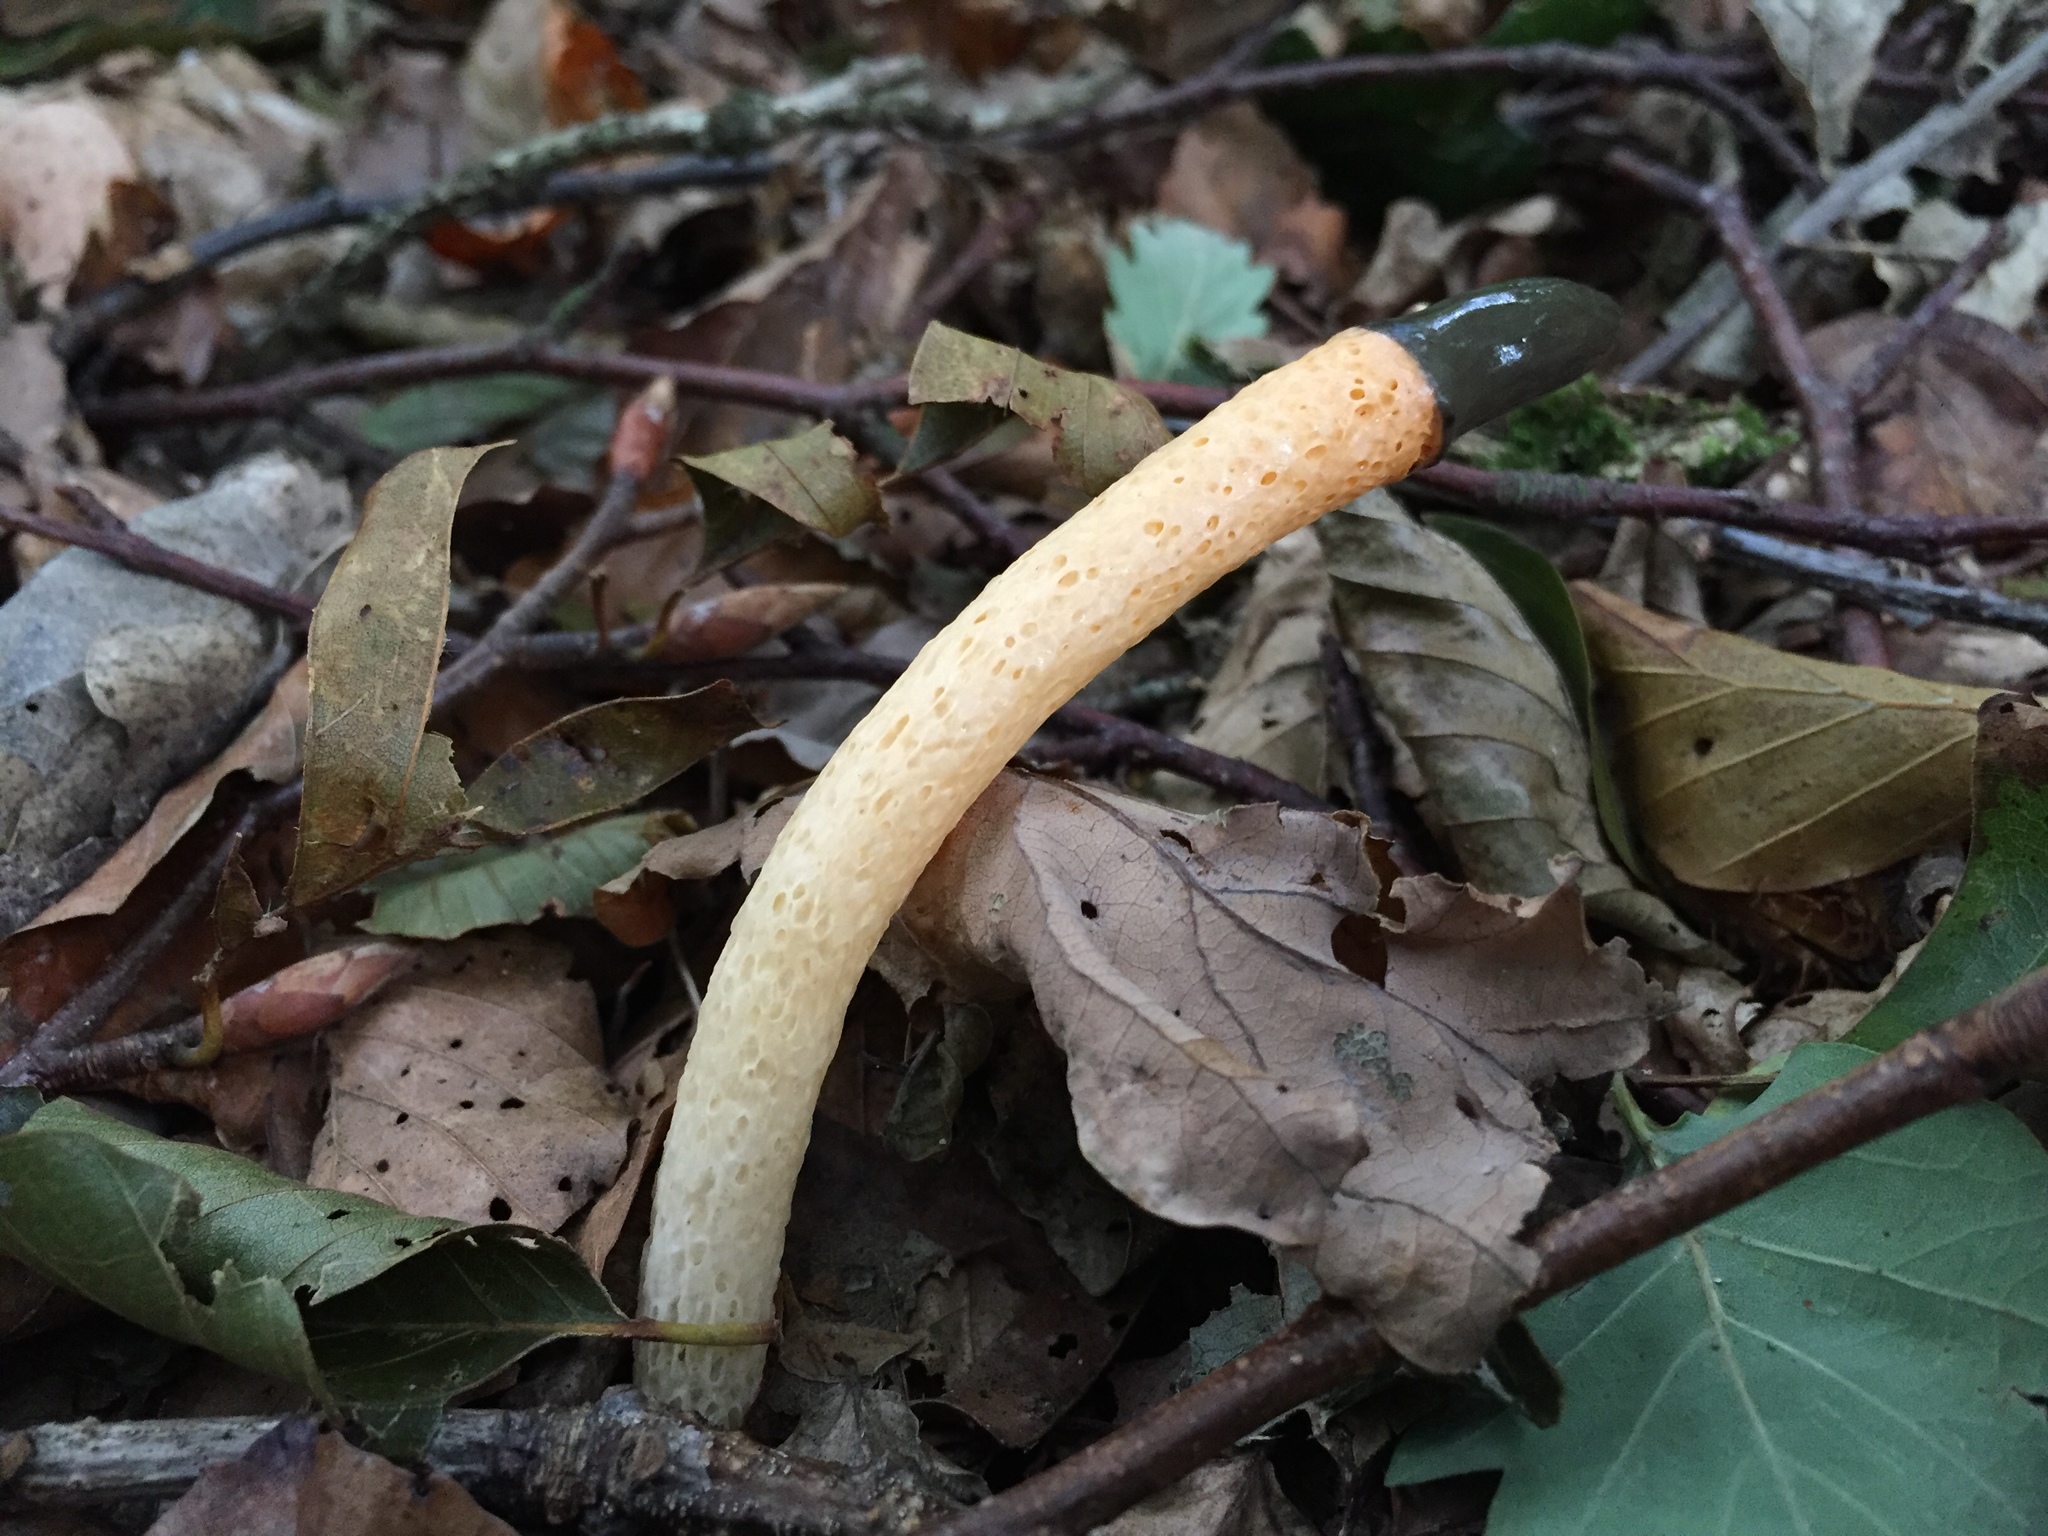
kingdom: Fungi
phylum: Basidiomycota
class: Agaricomycetes
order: Phallales
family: Phallaceae
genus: Mutinus
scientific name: Mutinus caninus
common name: Dog stinkhorn
